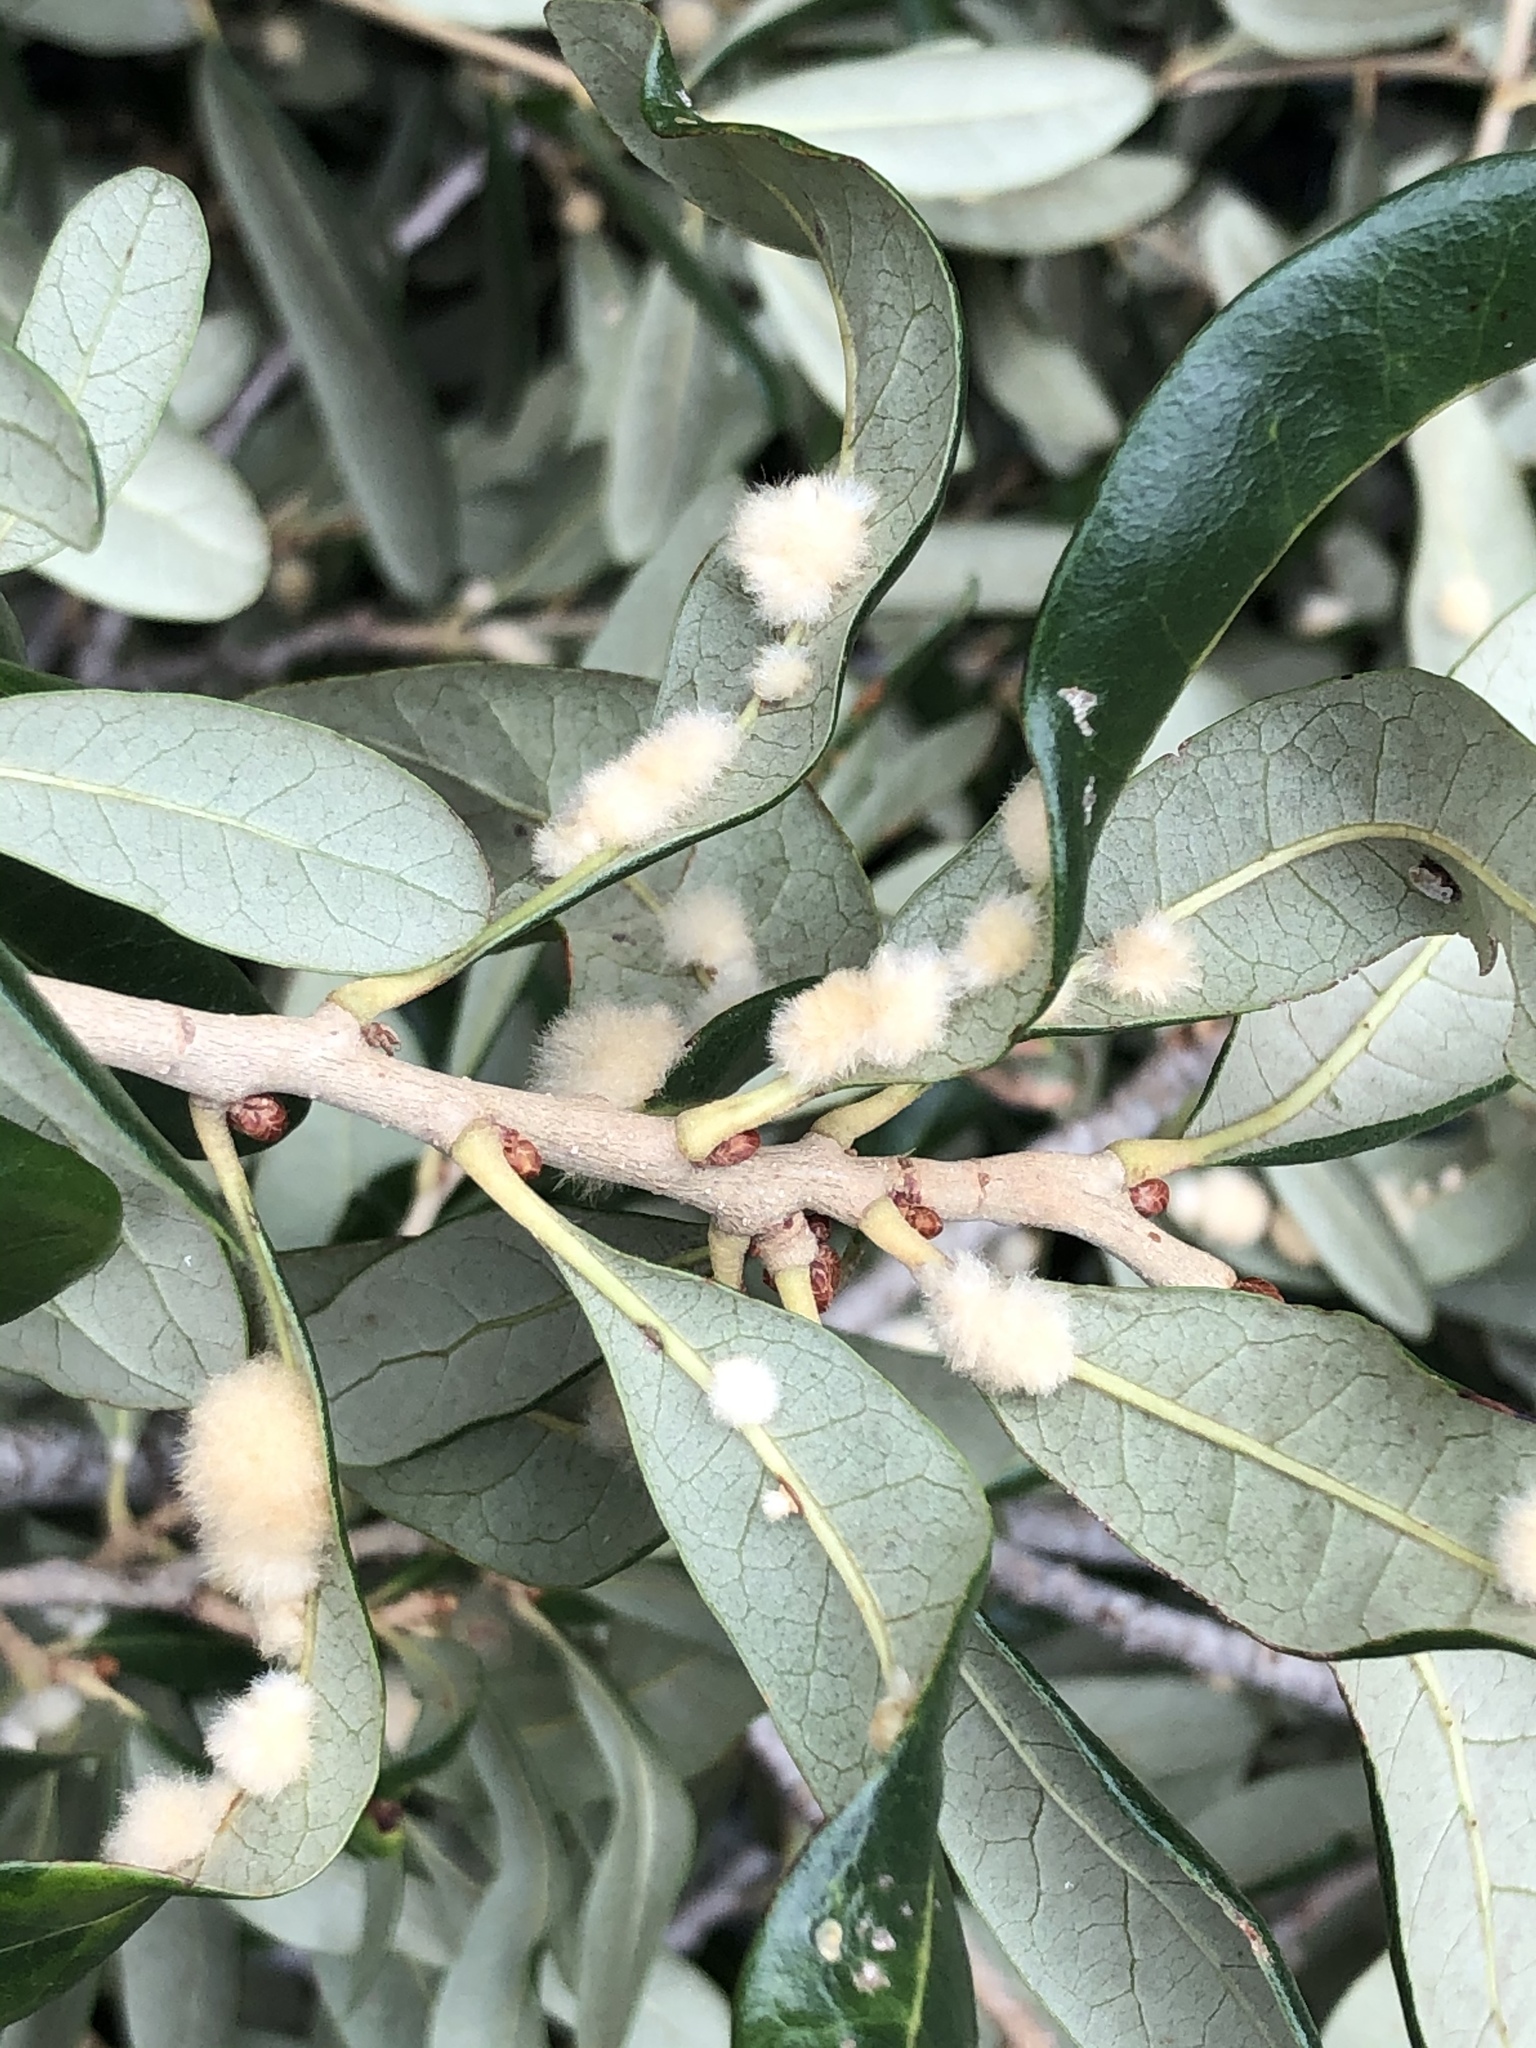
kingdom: Animalia
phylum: Arthropoda
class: Insecta
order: Hymenoptera
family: Cynipidae
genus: Andricus
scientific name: Andricus Druon quercuslanigerum
